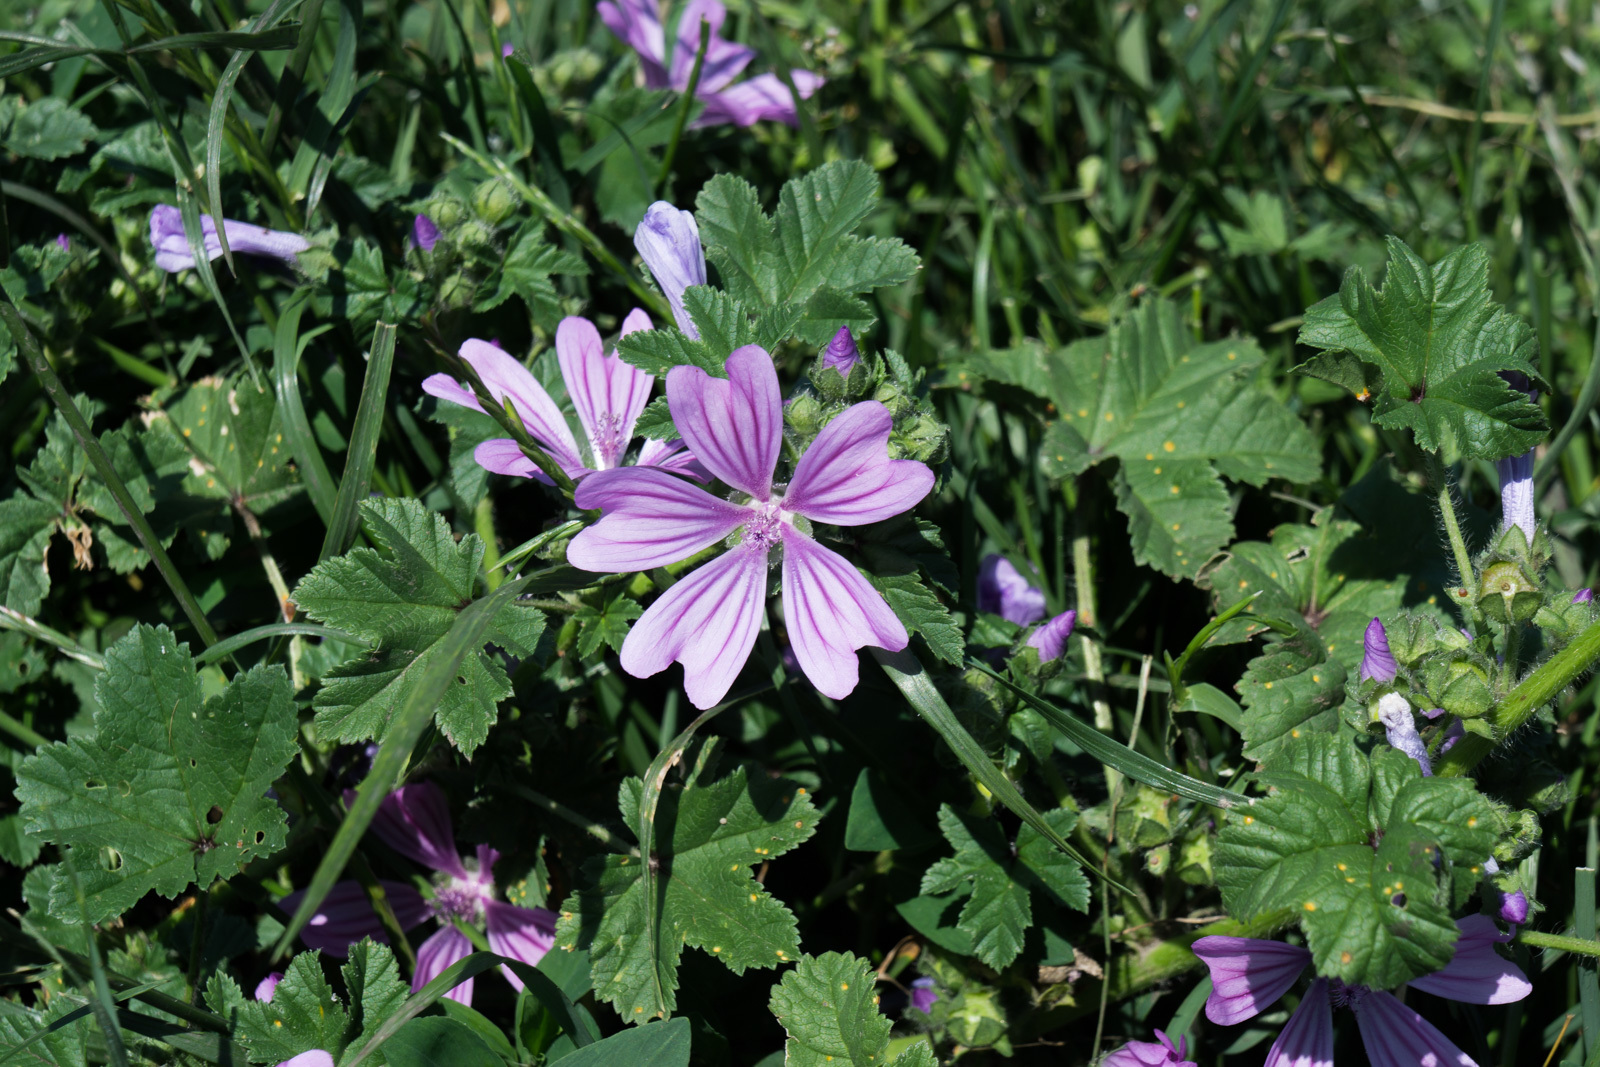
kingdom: Plantae
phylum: Tracheophyta
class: Magnoliopsida
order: Malvales
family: Malvaceae
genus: Malva
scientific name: Malva sylvestris
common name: Common mallow
